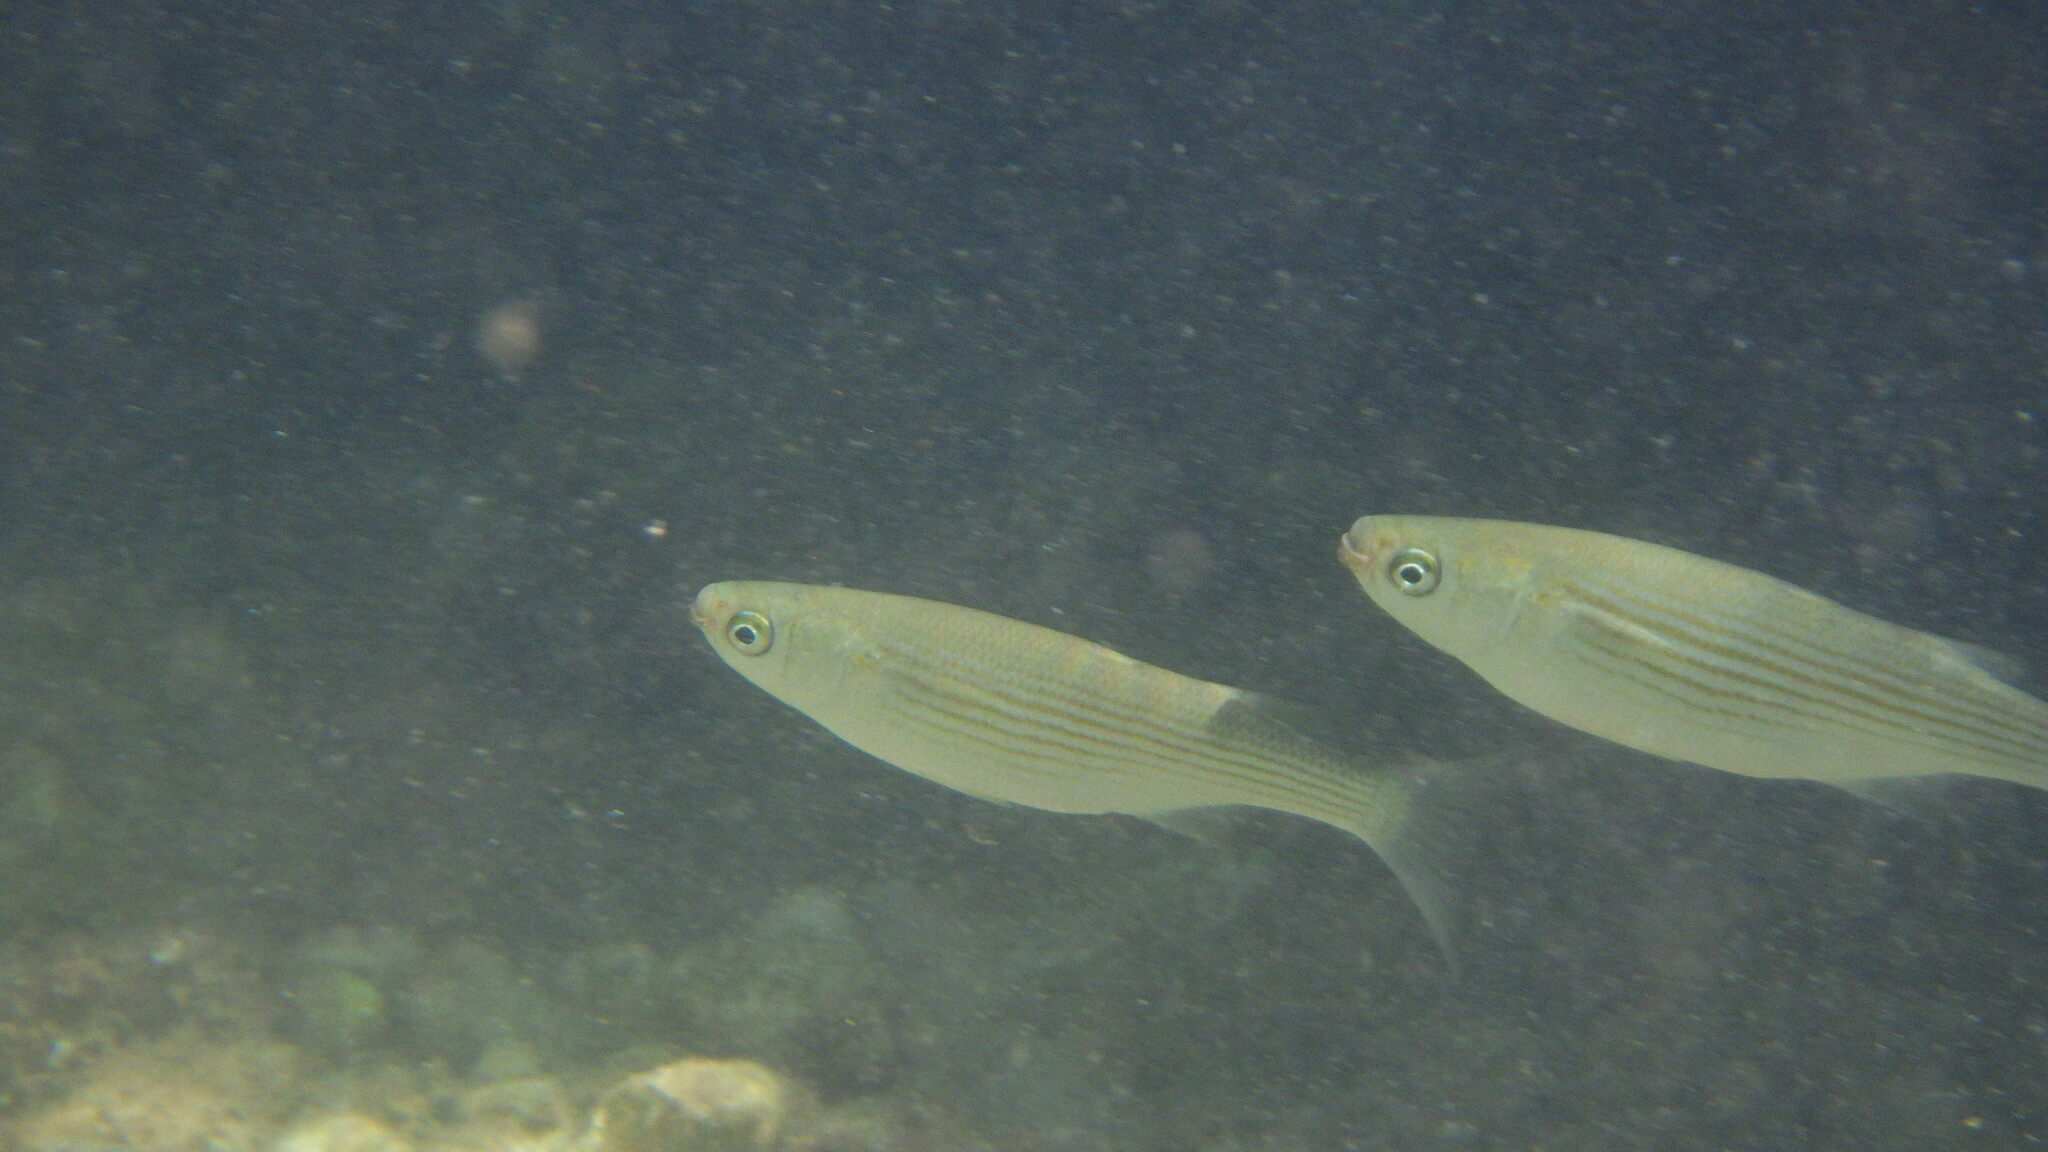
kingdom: Animalia
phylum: Chordata
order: Mugiliformes
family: Mugilidae
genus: Oedalechilus
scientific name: Oedalechilus labeo
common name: Boxlip mullet
